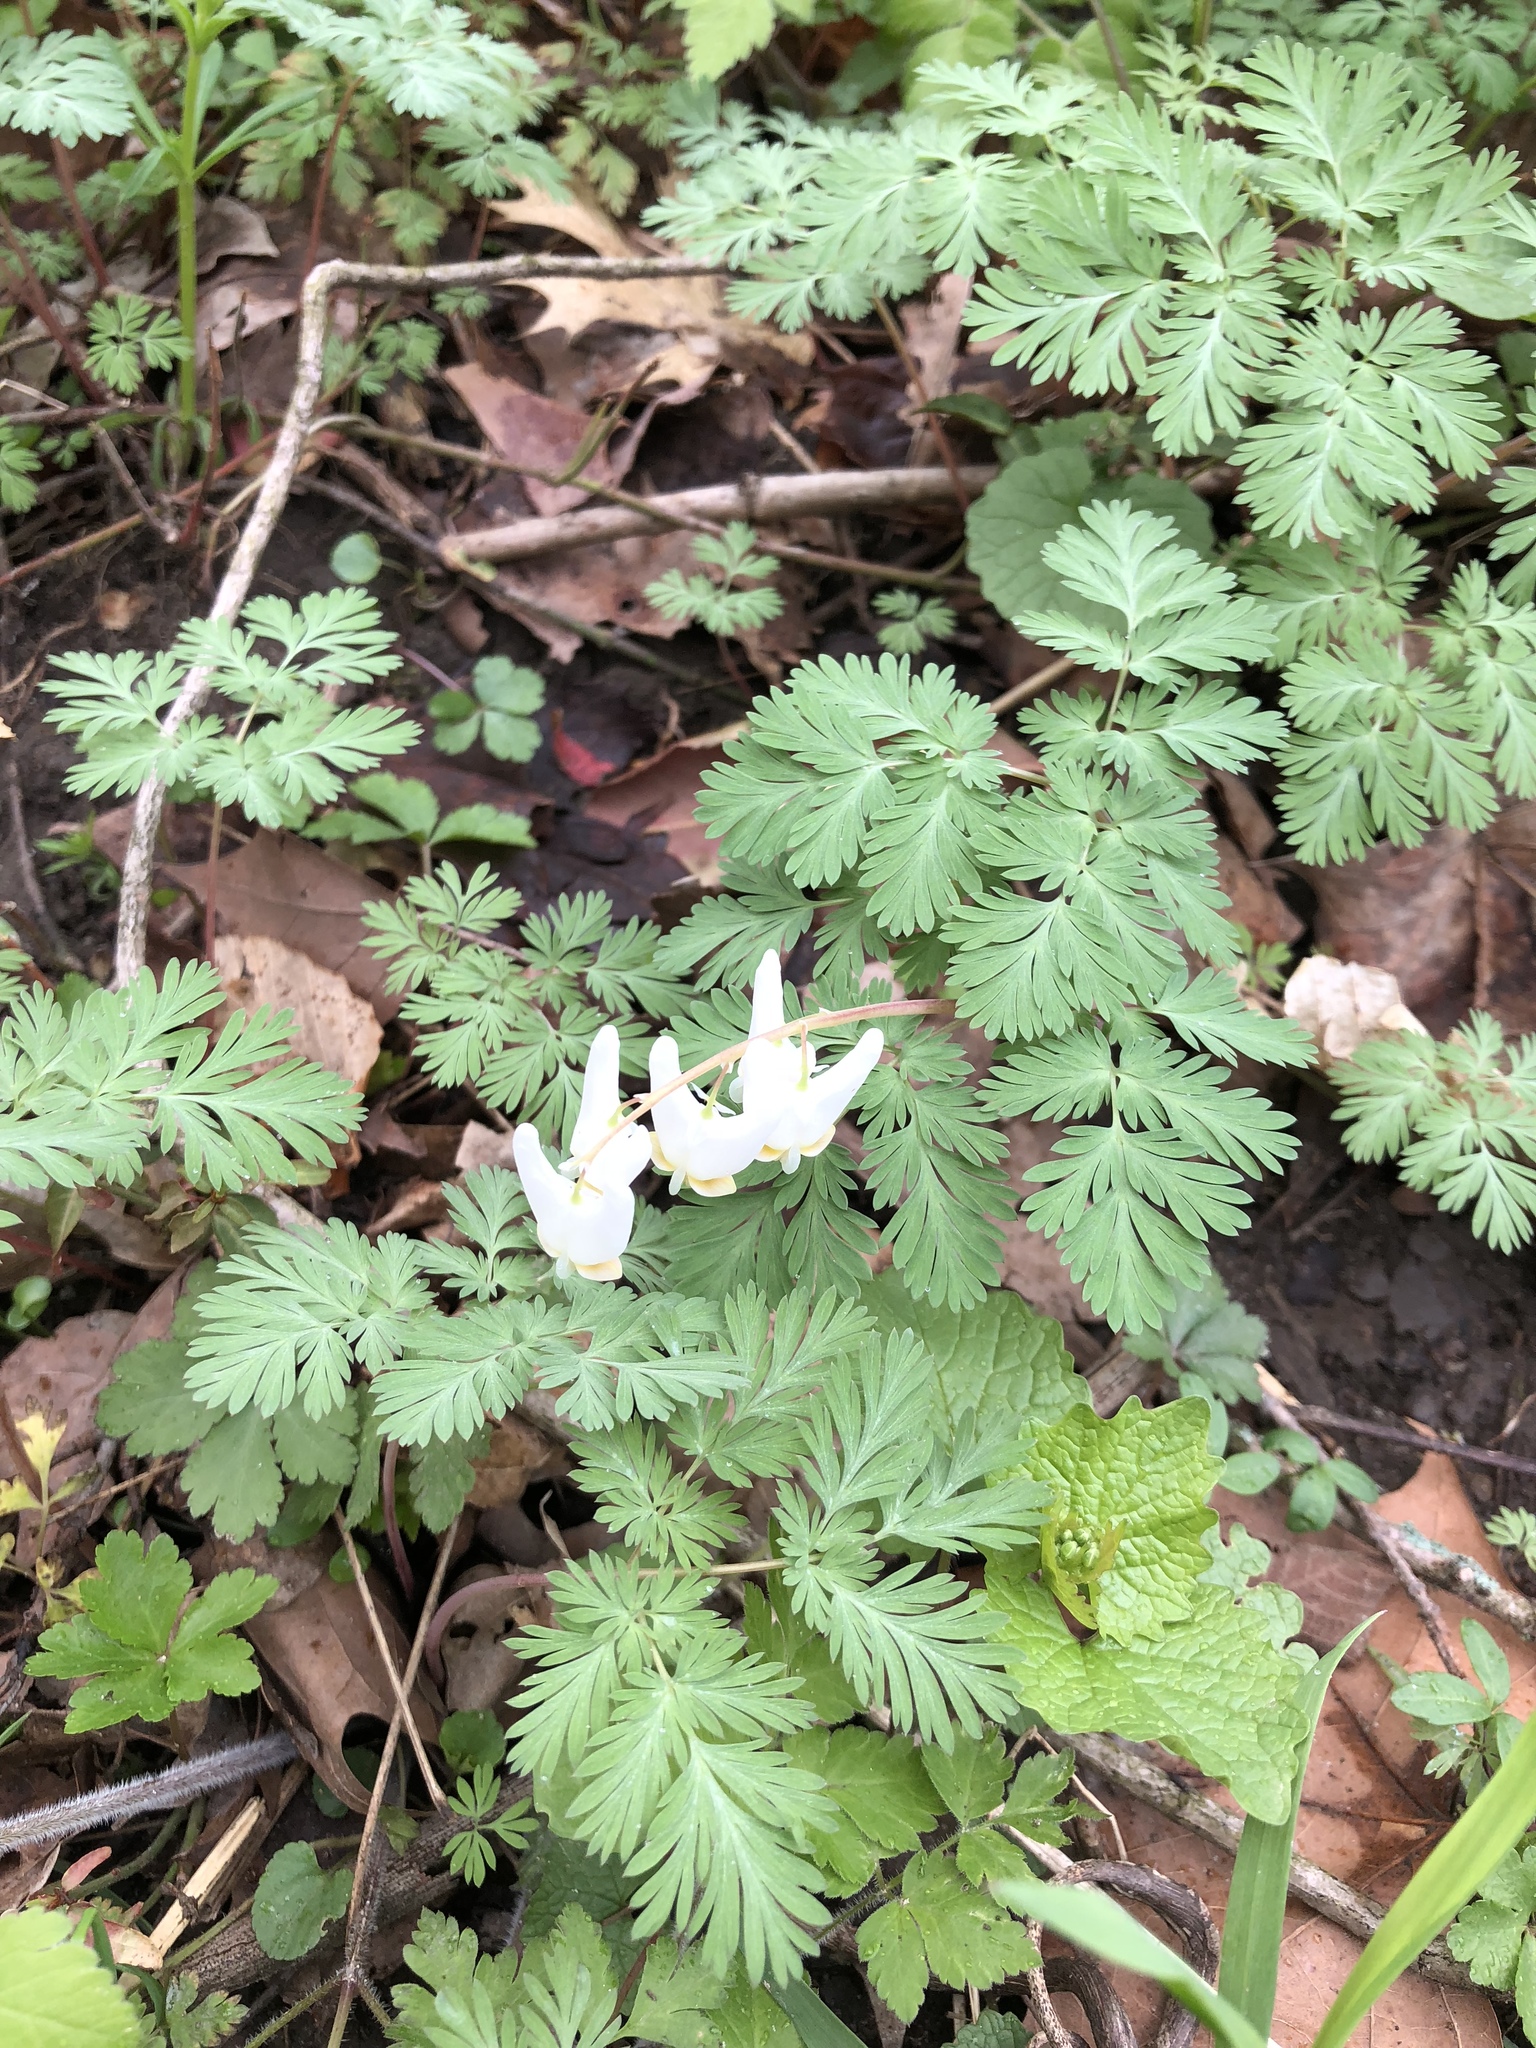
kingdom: Plantae
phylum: Tracheophyta
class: Magnoliopsida
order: Ranunculales
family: Papaveraceae
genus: Dicentra
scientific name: Dicentra cucullaria
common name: Dutchman's breeches
